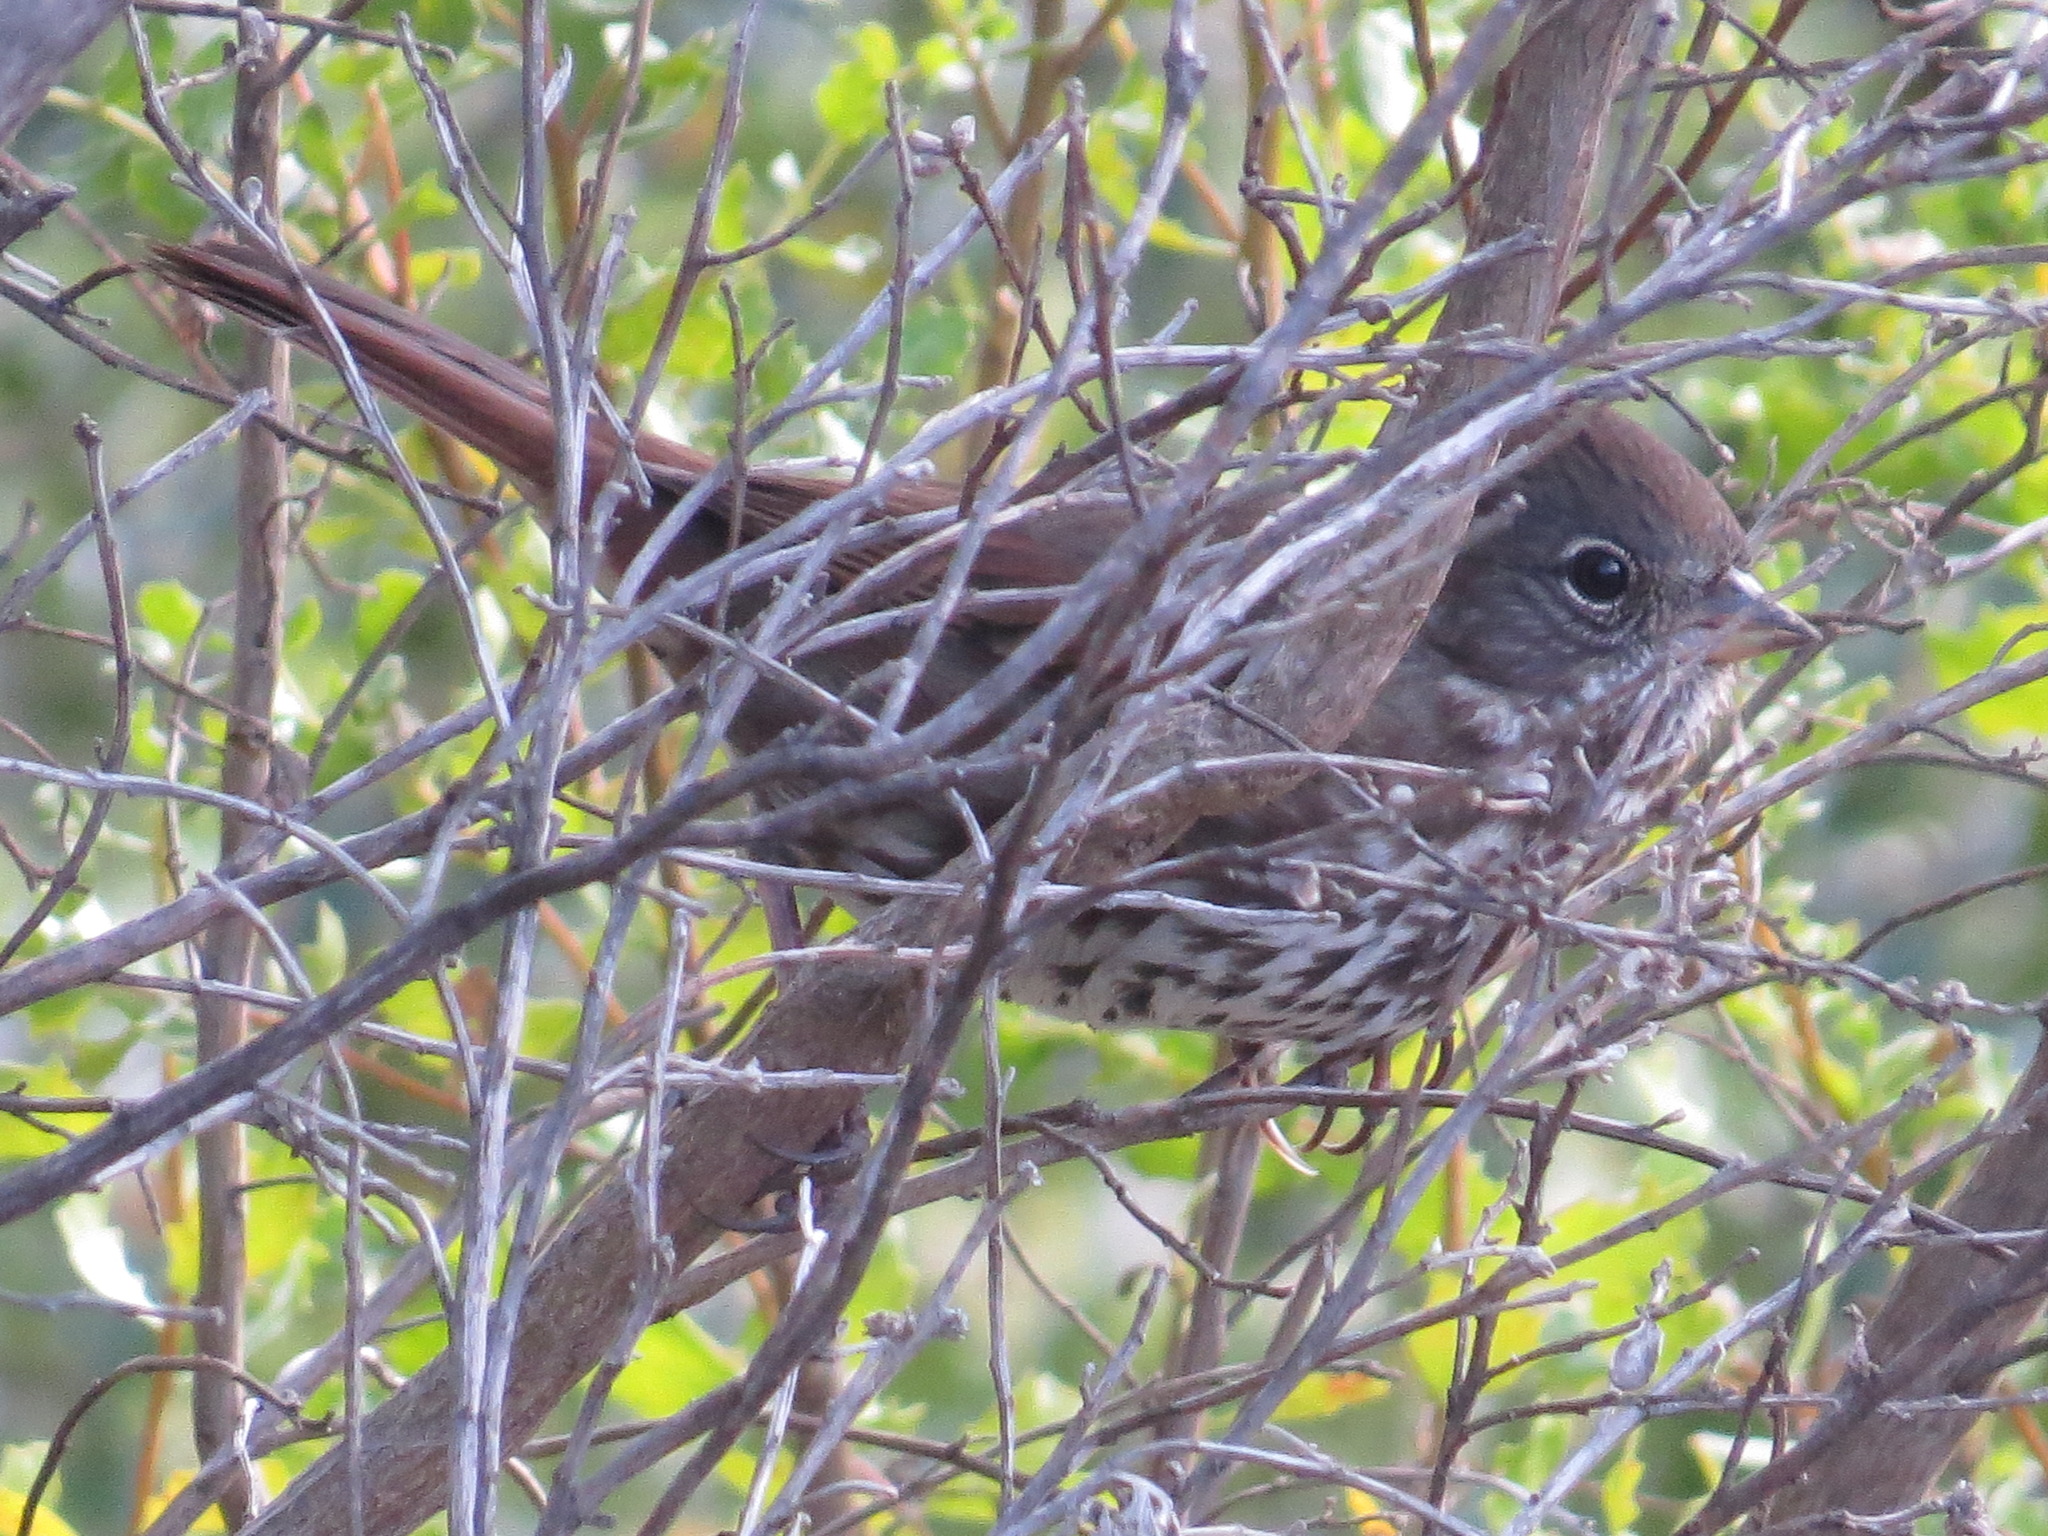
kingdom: Animalia
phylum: Chordata
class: Aves
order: Passeriformes
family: Passerellidae
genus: Passerella
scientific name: Passerella iliaca
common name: Fox sparrow
